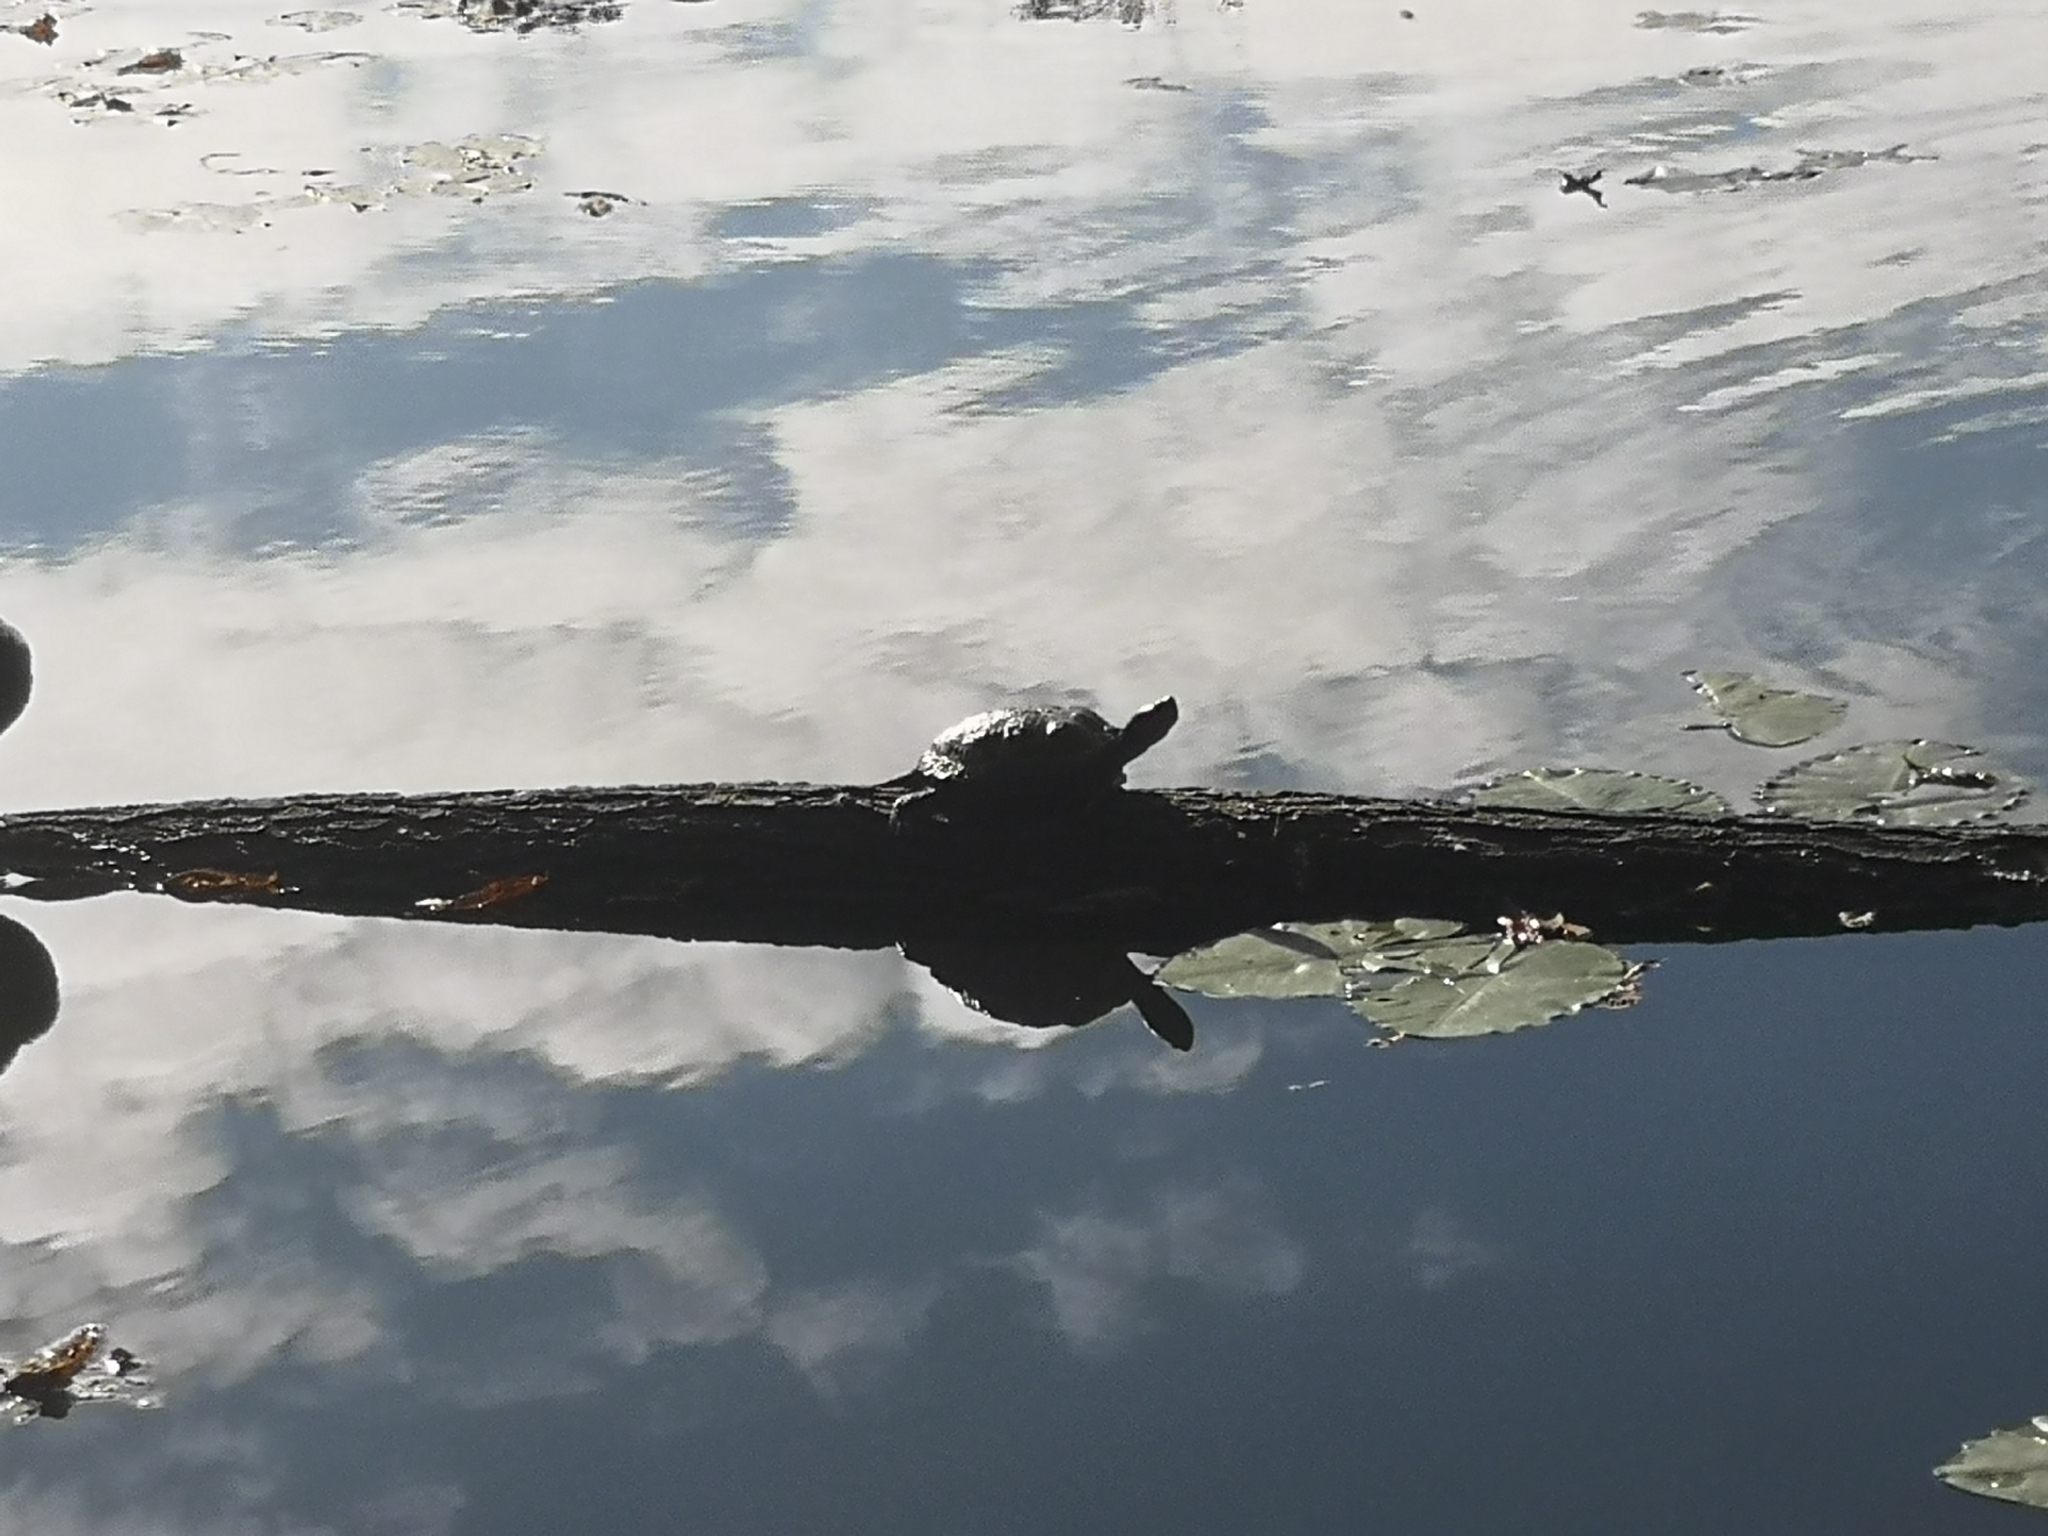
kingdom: Animalia
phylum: Chordata
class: Testudines
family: Emydidae
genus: Trachemys
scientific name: Trachemys scripta
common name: Slider
